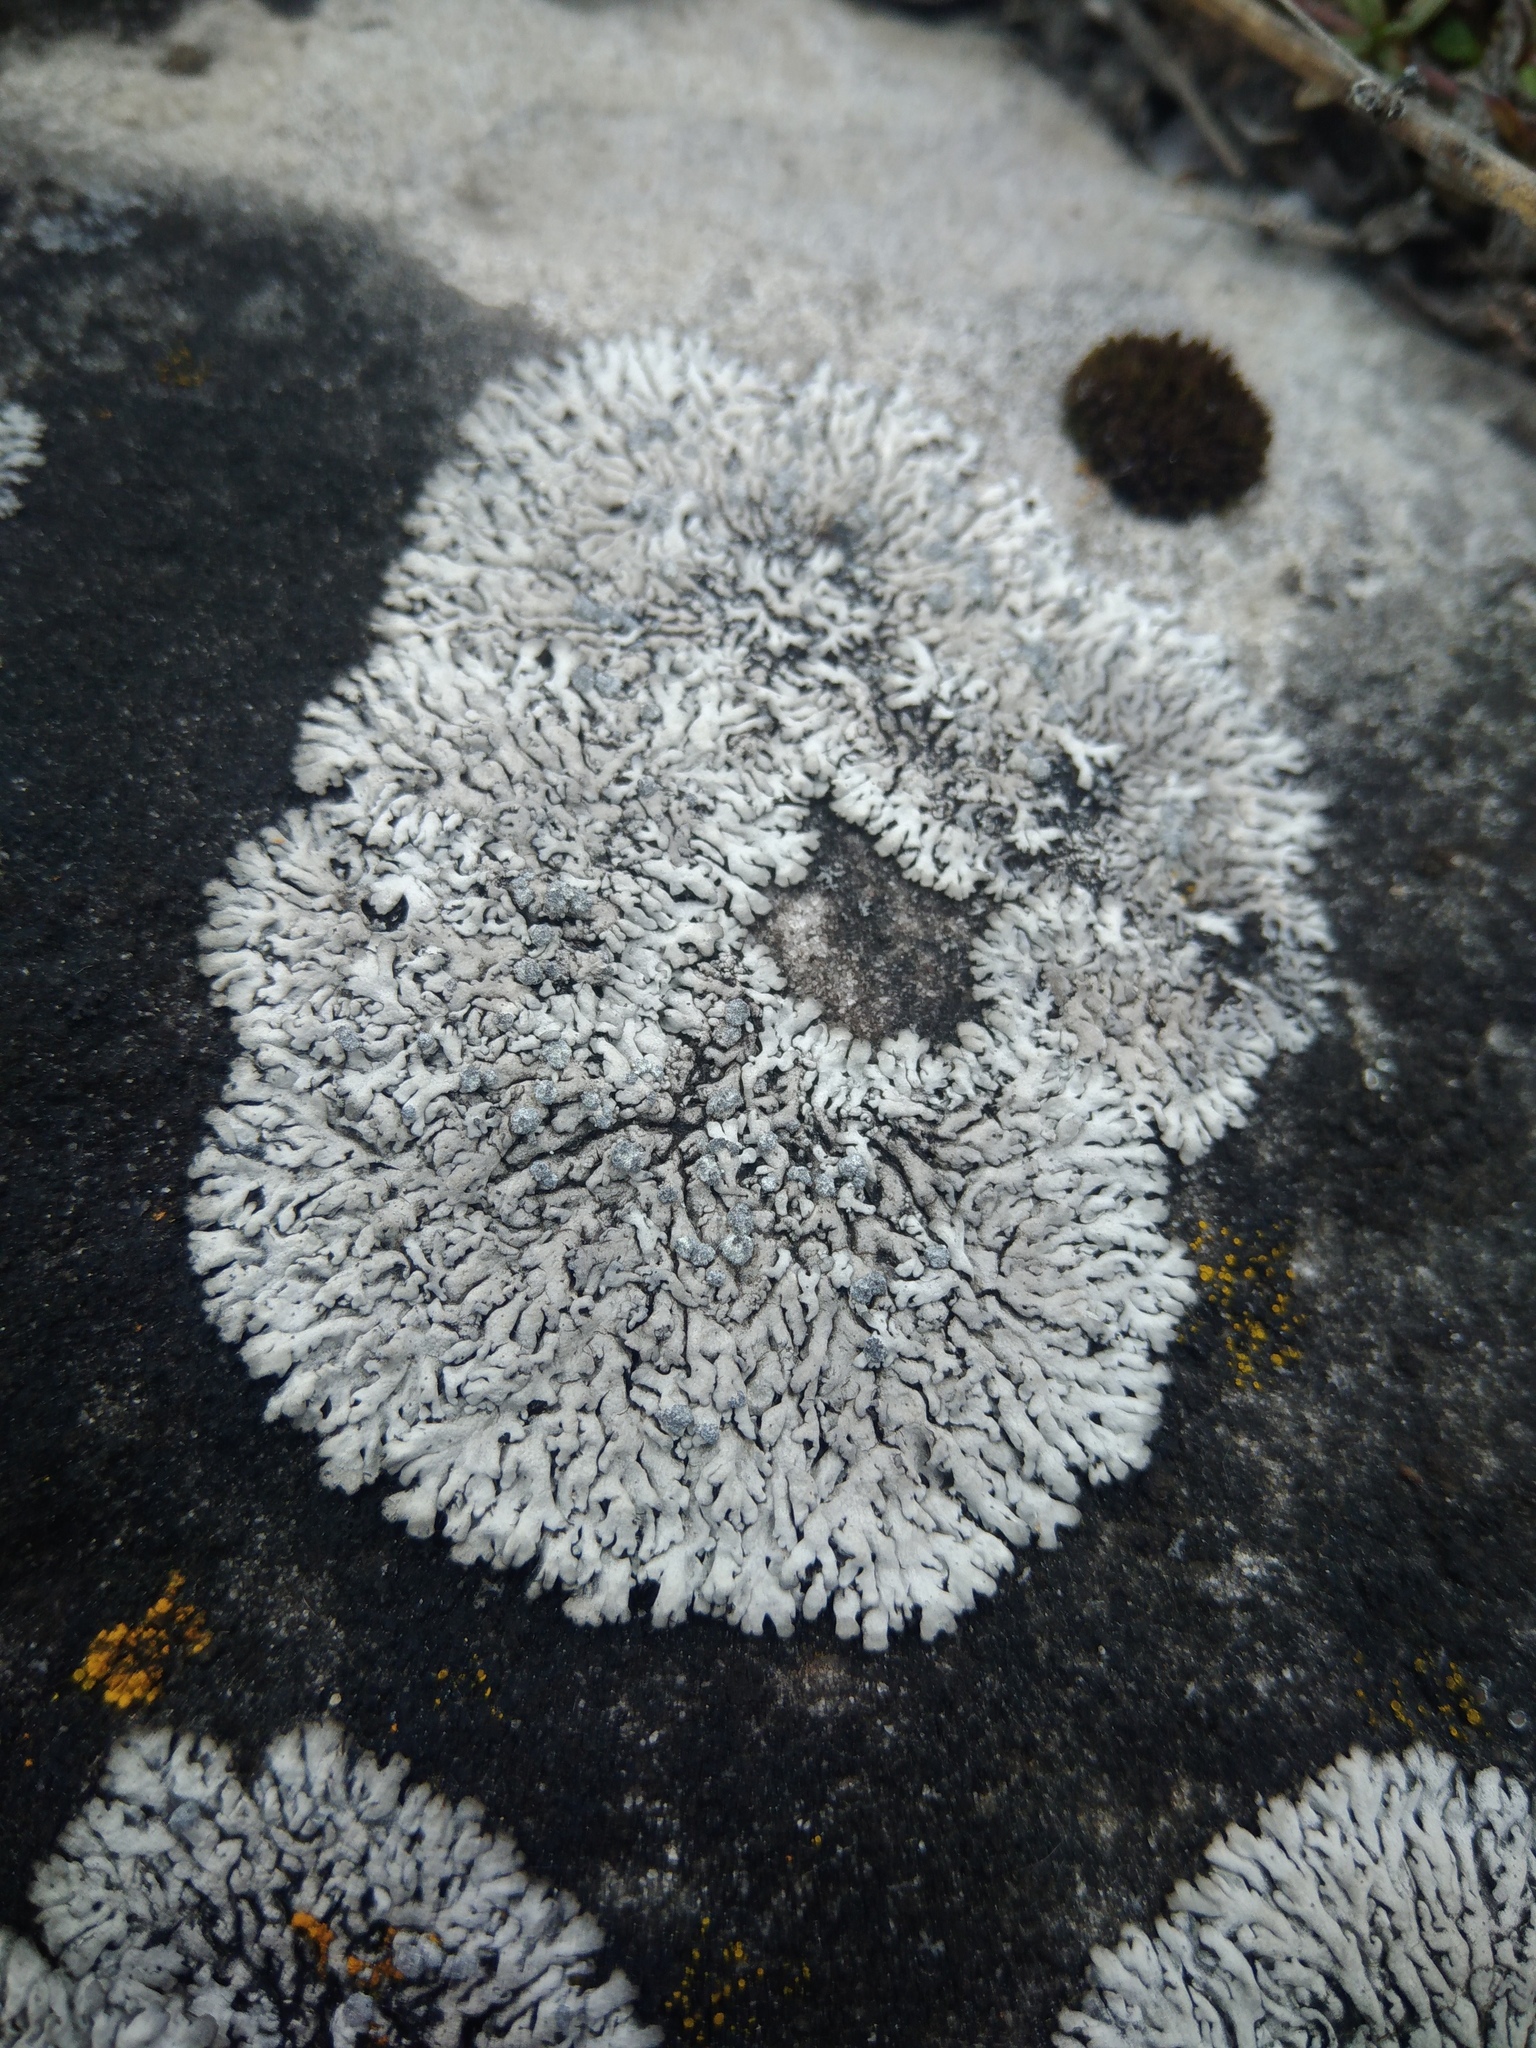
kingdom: Fungi
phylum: Ascomycota
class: Lecanoromycetes
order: Caliciales
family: Physciaceae
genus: Physcia
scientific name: Physcia caesia
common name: Blue-gray rosette lichen
